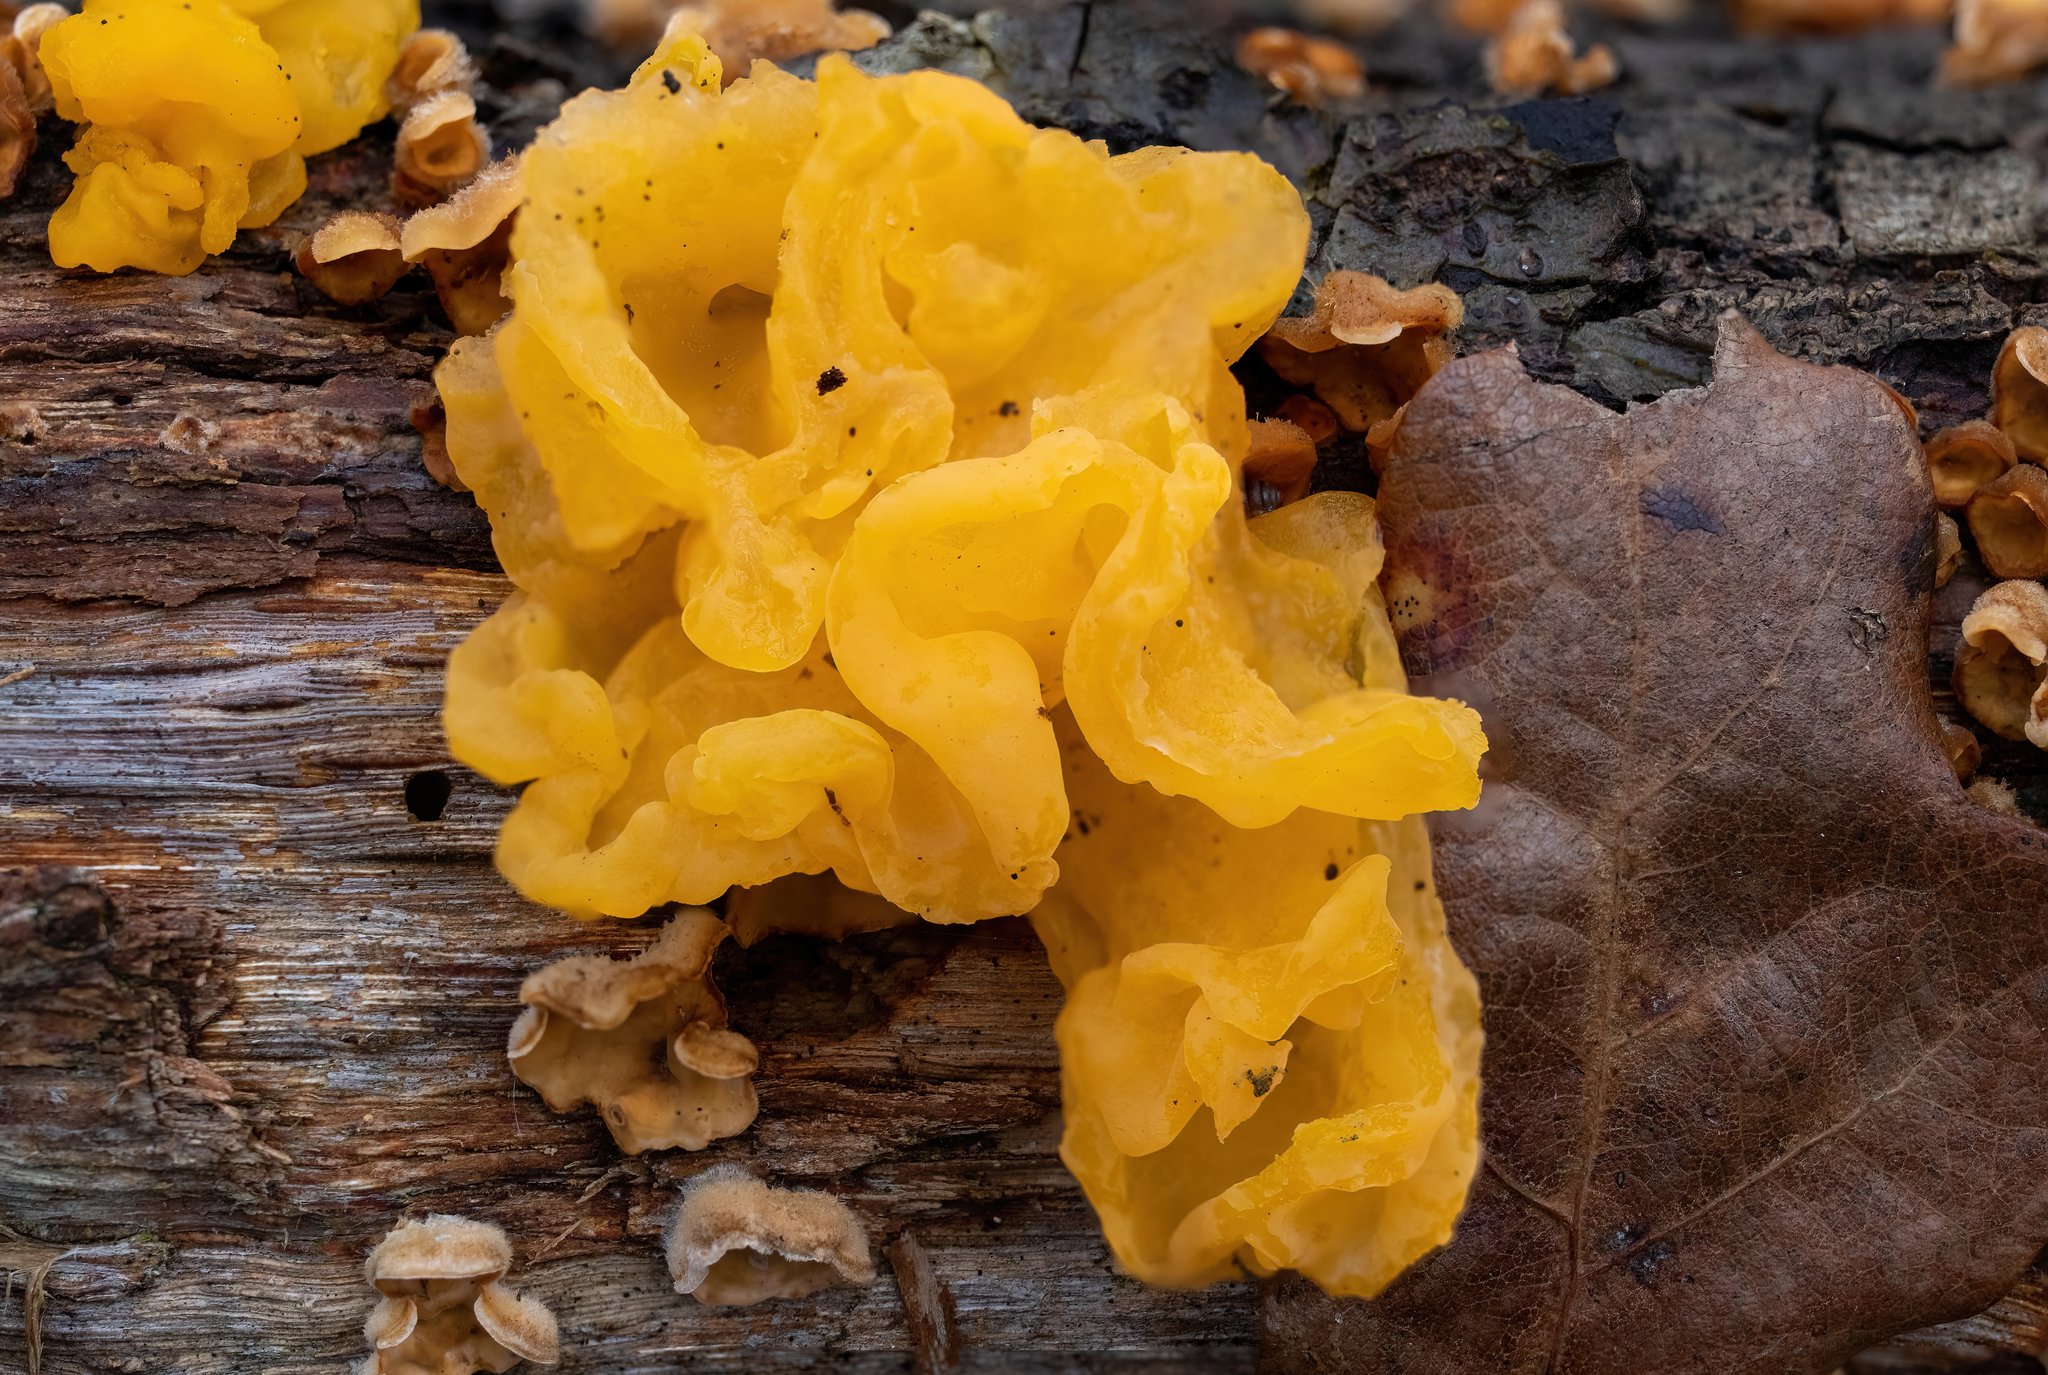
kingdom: Fungi
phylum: Basidiomycota
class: Tremellomycetes
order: Tremellales
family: Naemateliaceae
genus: Naematelia
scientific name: Naematelia aurantia
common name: Golden ear
